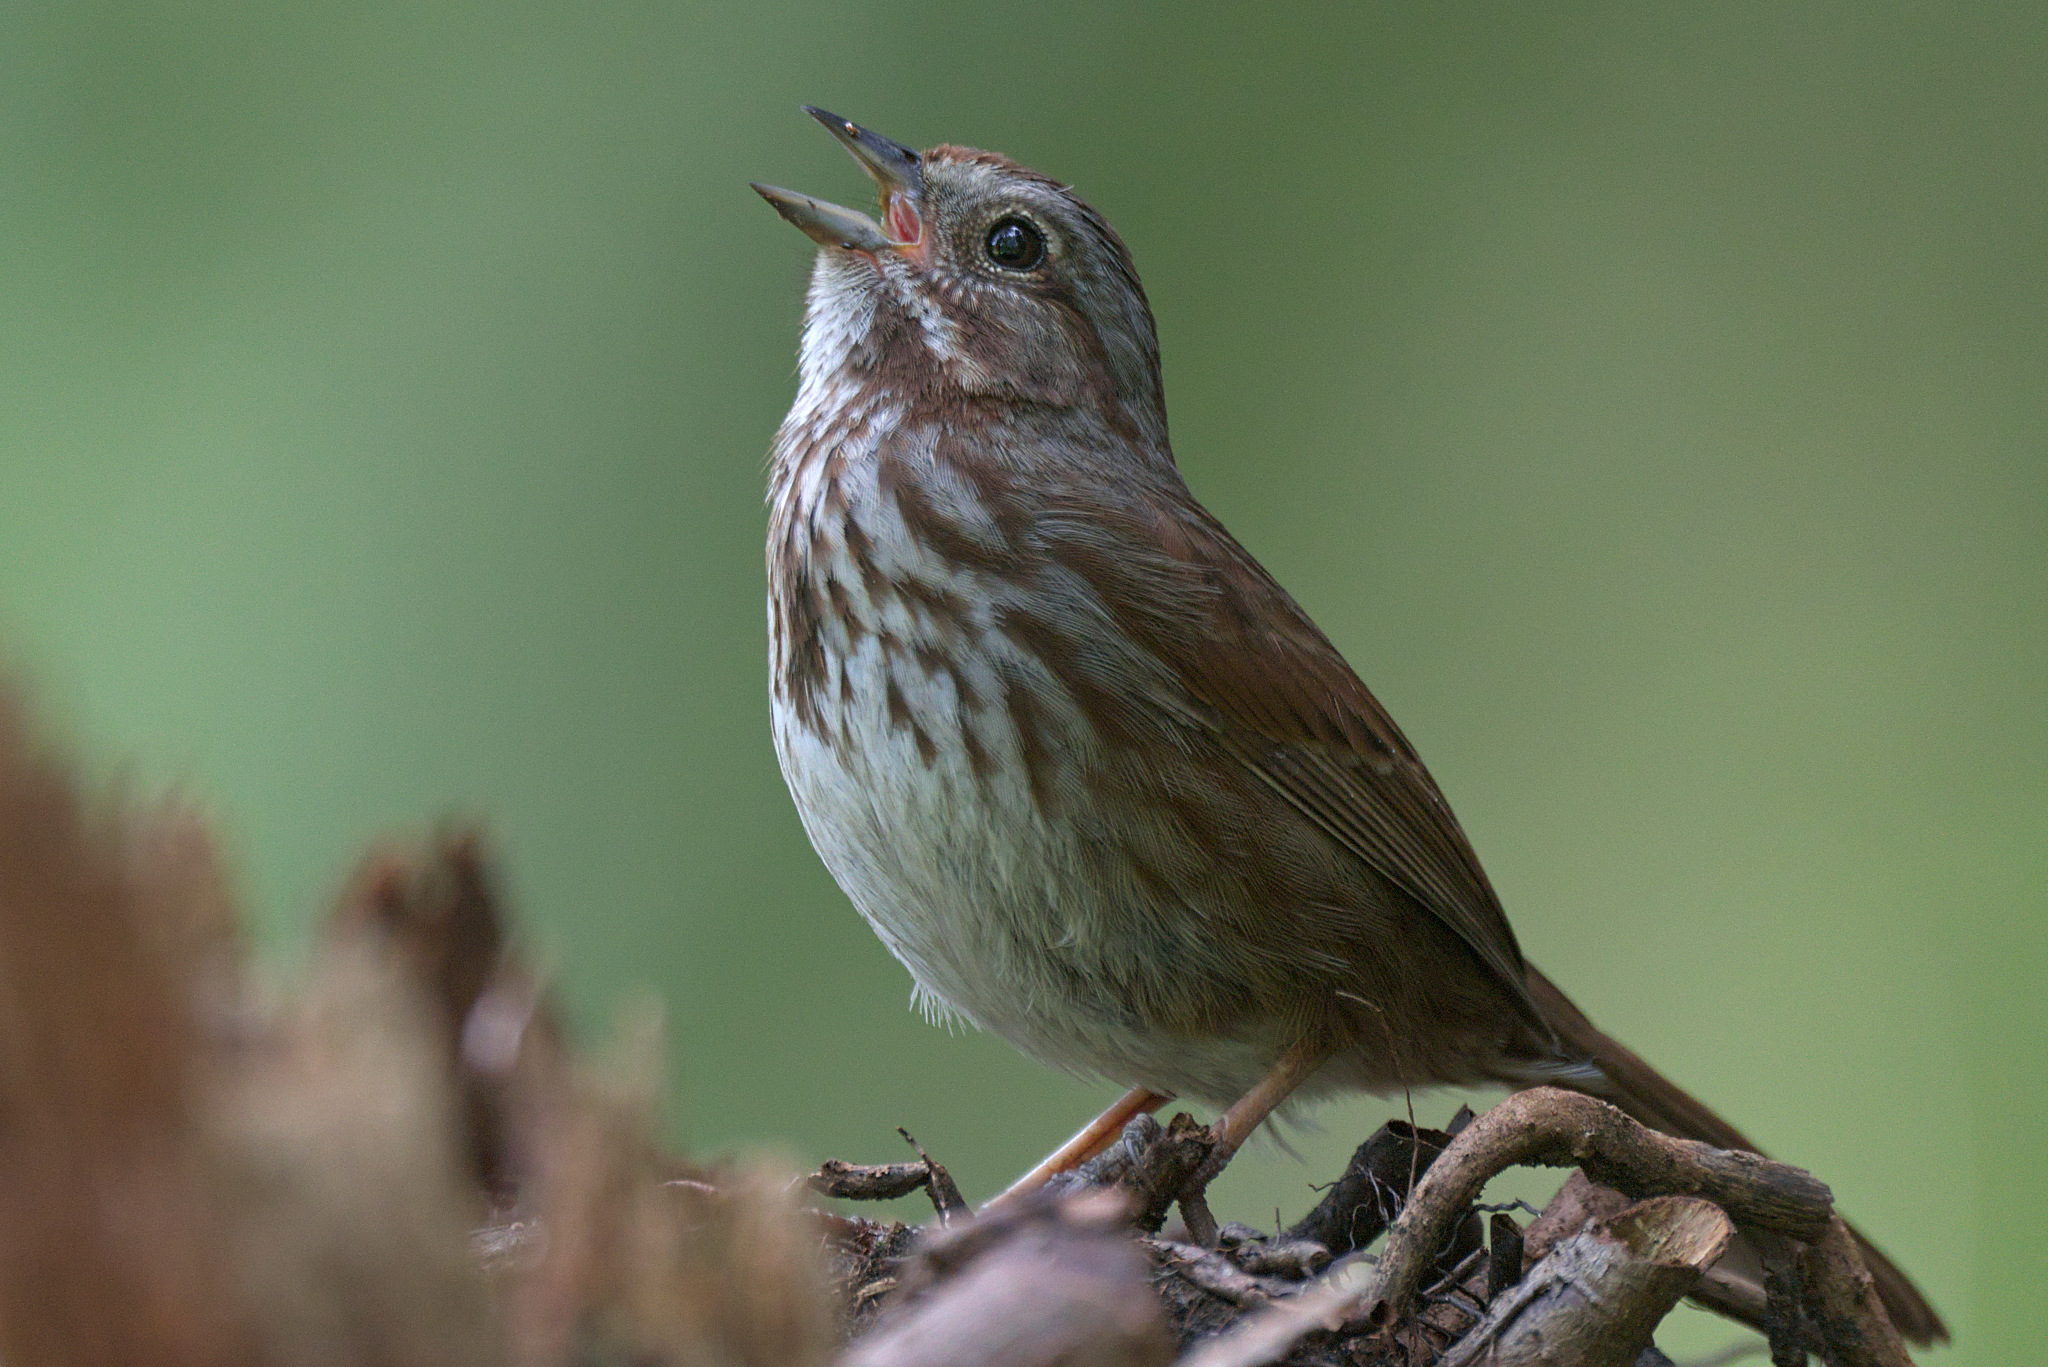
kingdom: Animalia
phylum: Chordata
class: Aves
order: Passeriformes
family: Passerellidae
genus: Melospiza
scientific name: Melospiza melodia
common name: Song sparrow
